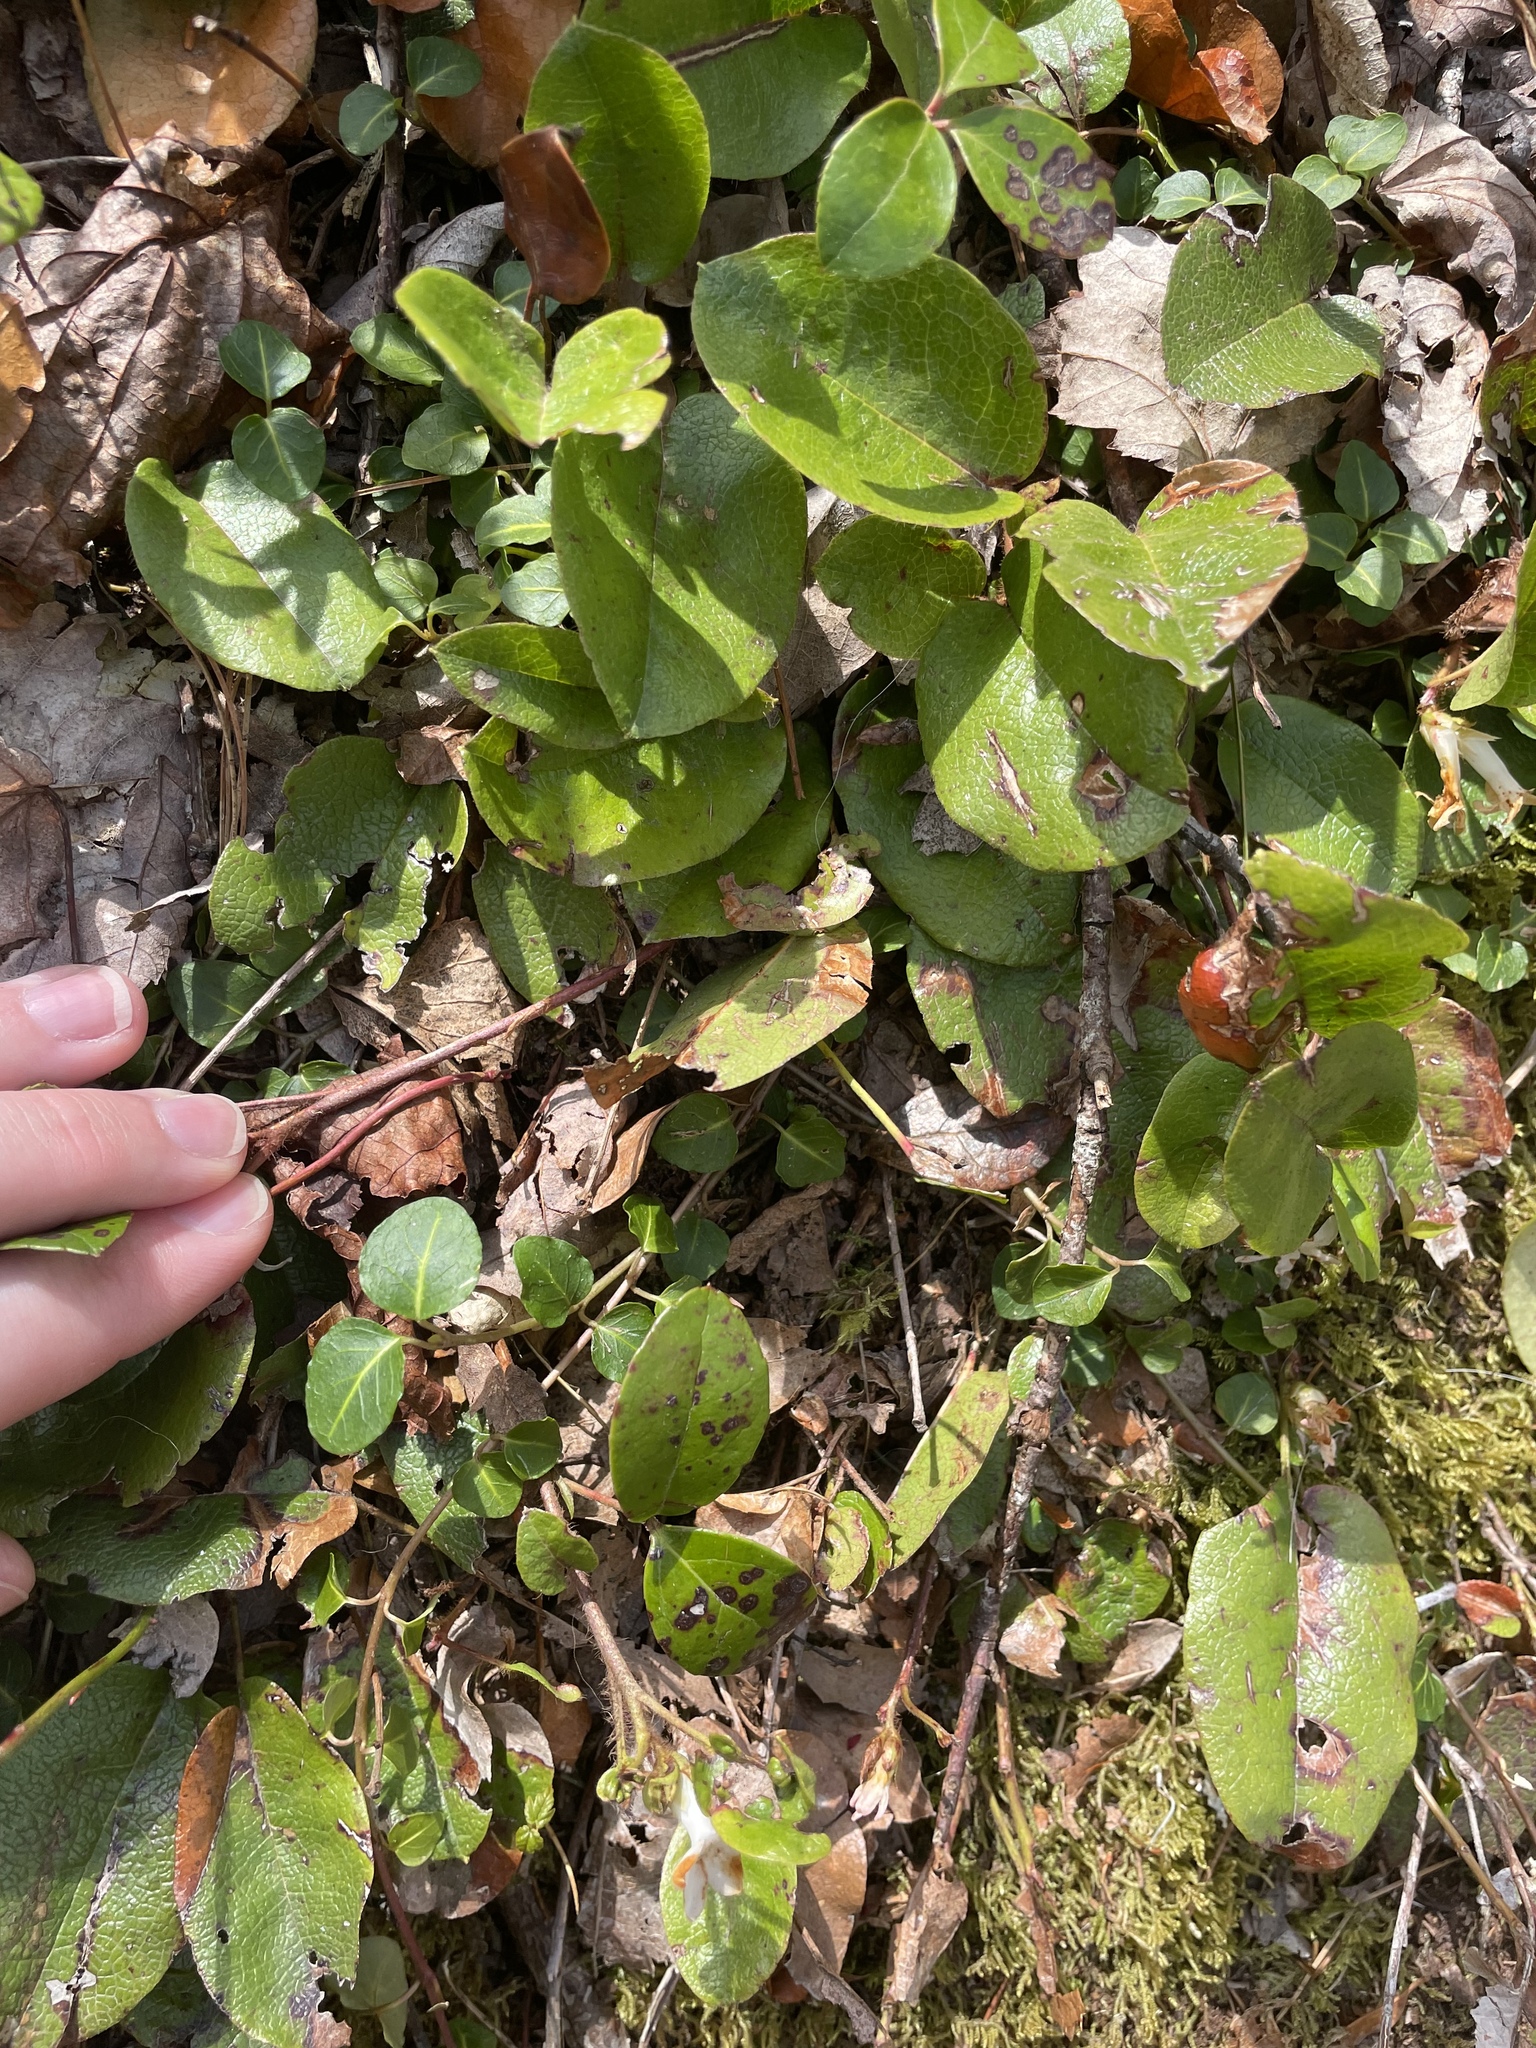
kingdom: Plantae
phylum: Tracheophyta
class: Magnoliopsida
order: Ericales
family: Ericaceae
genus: Epigaea
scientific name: Epigaea repens
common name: Gravelroot
